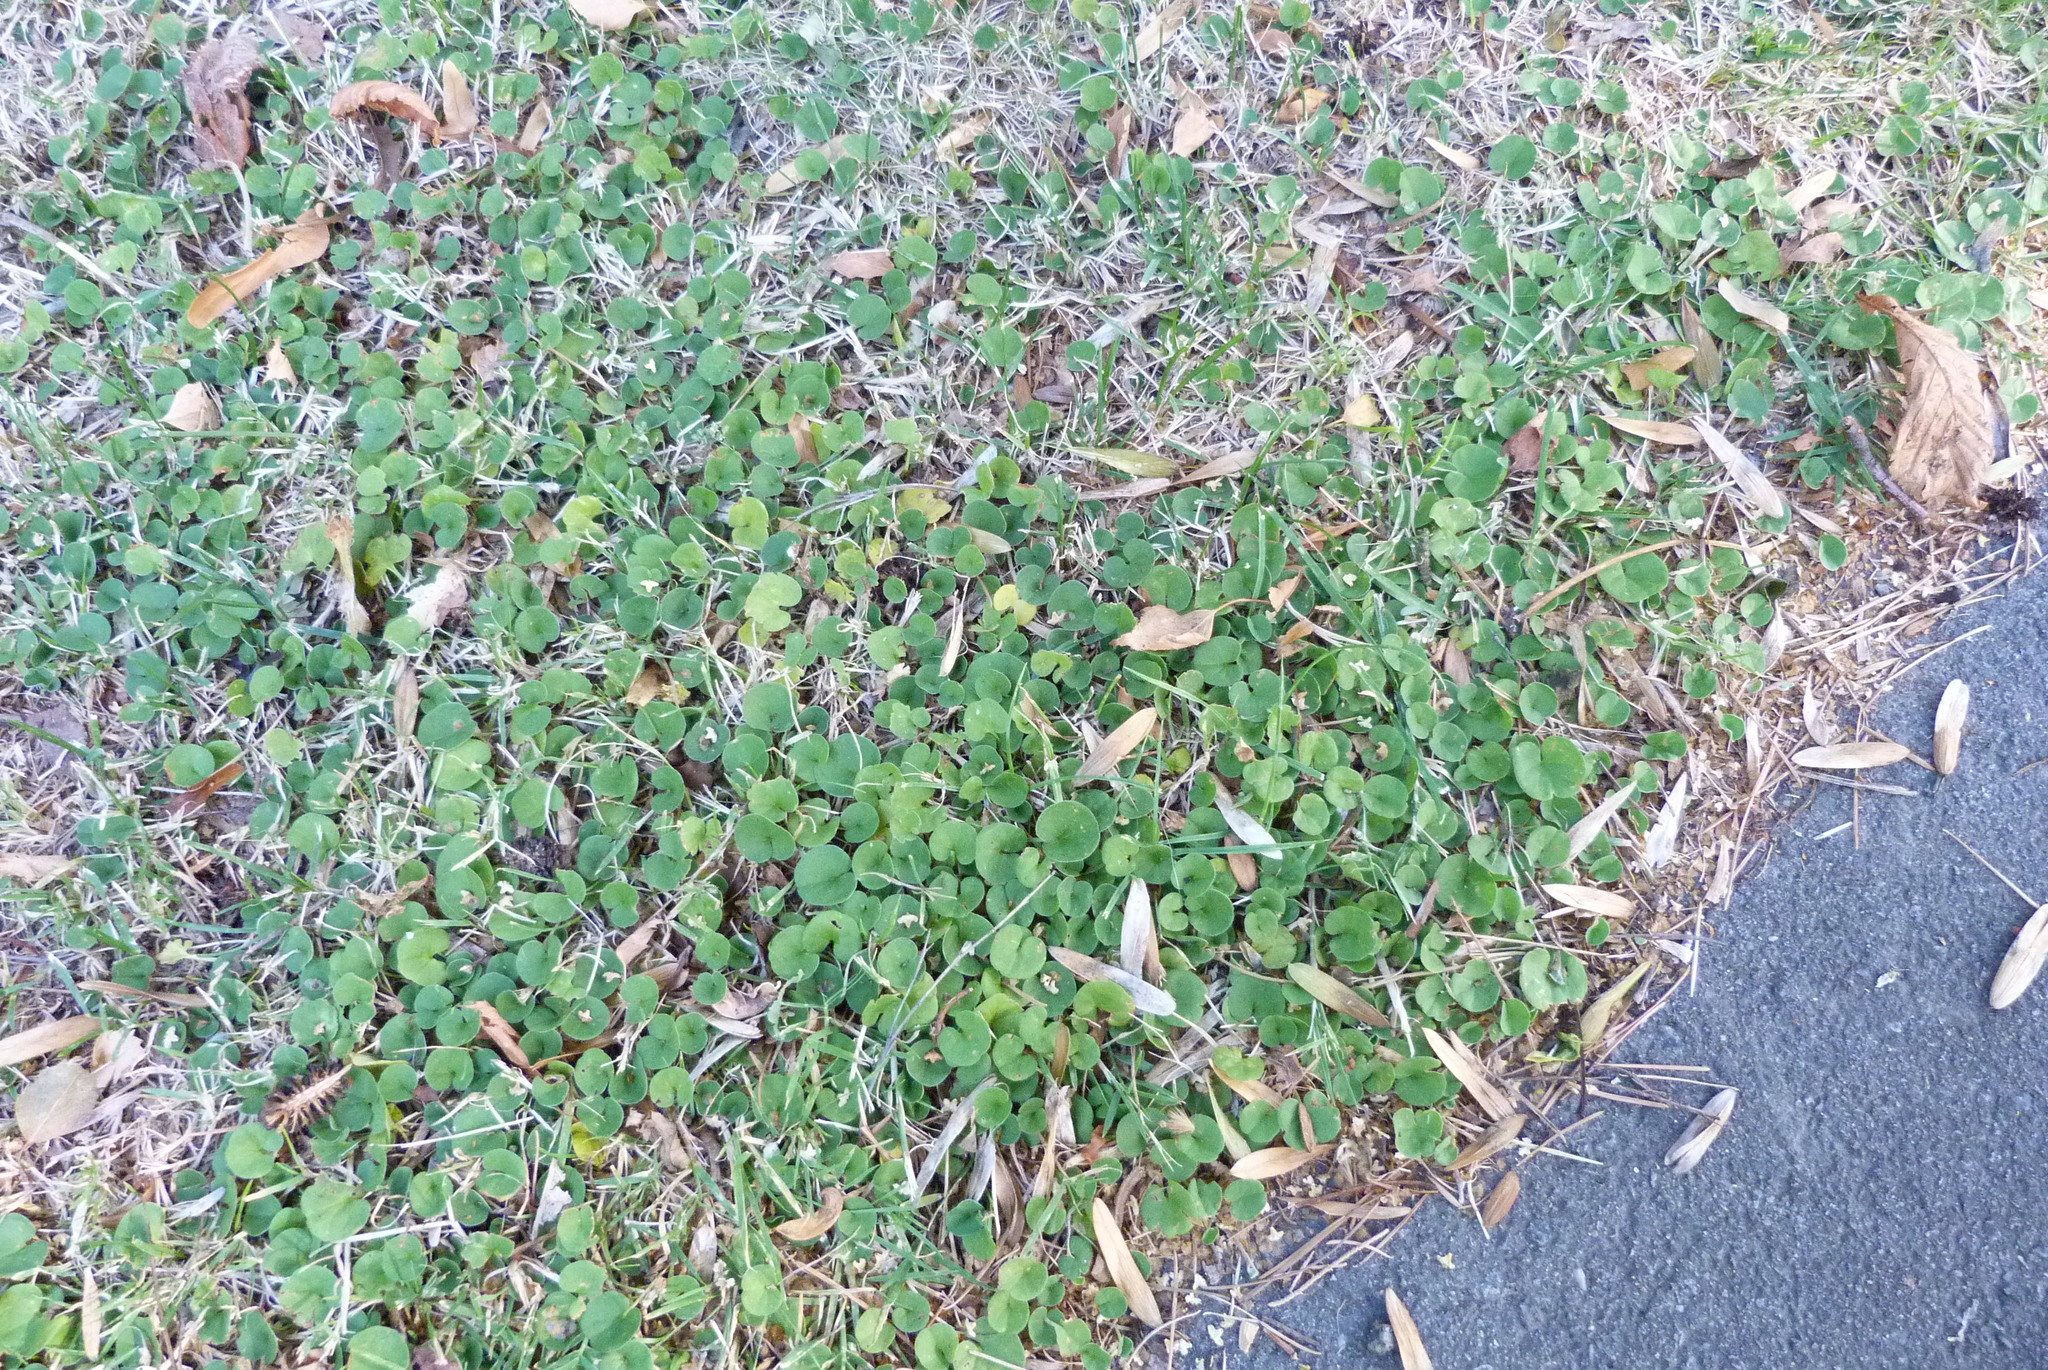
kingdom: Plantae
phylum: Tracheophyta
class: Magnoliopsida
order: Solanales
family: Convolvulaceae
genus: Dichondra
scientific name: Dichondra repens
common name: Kidneyweed
